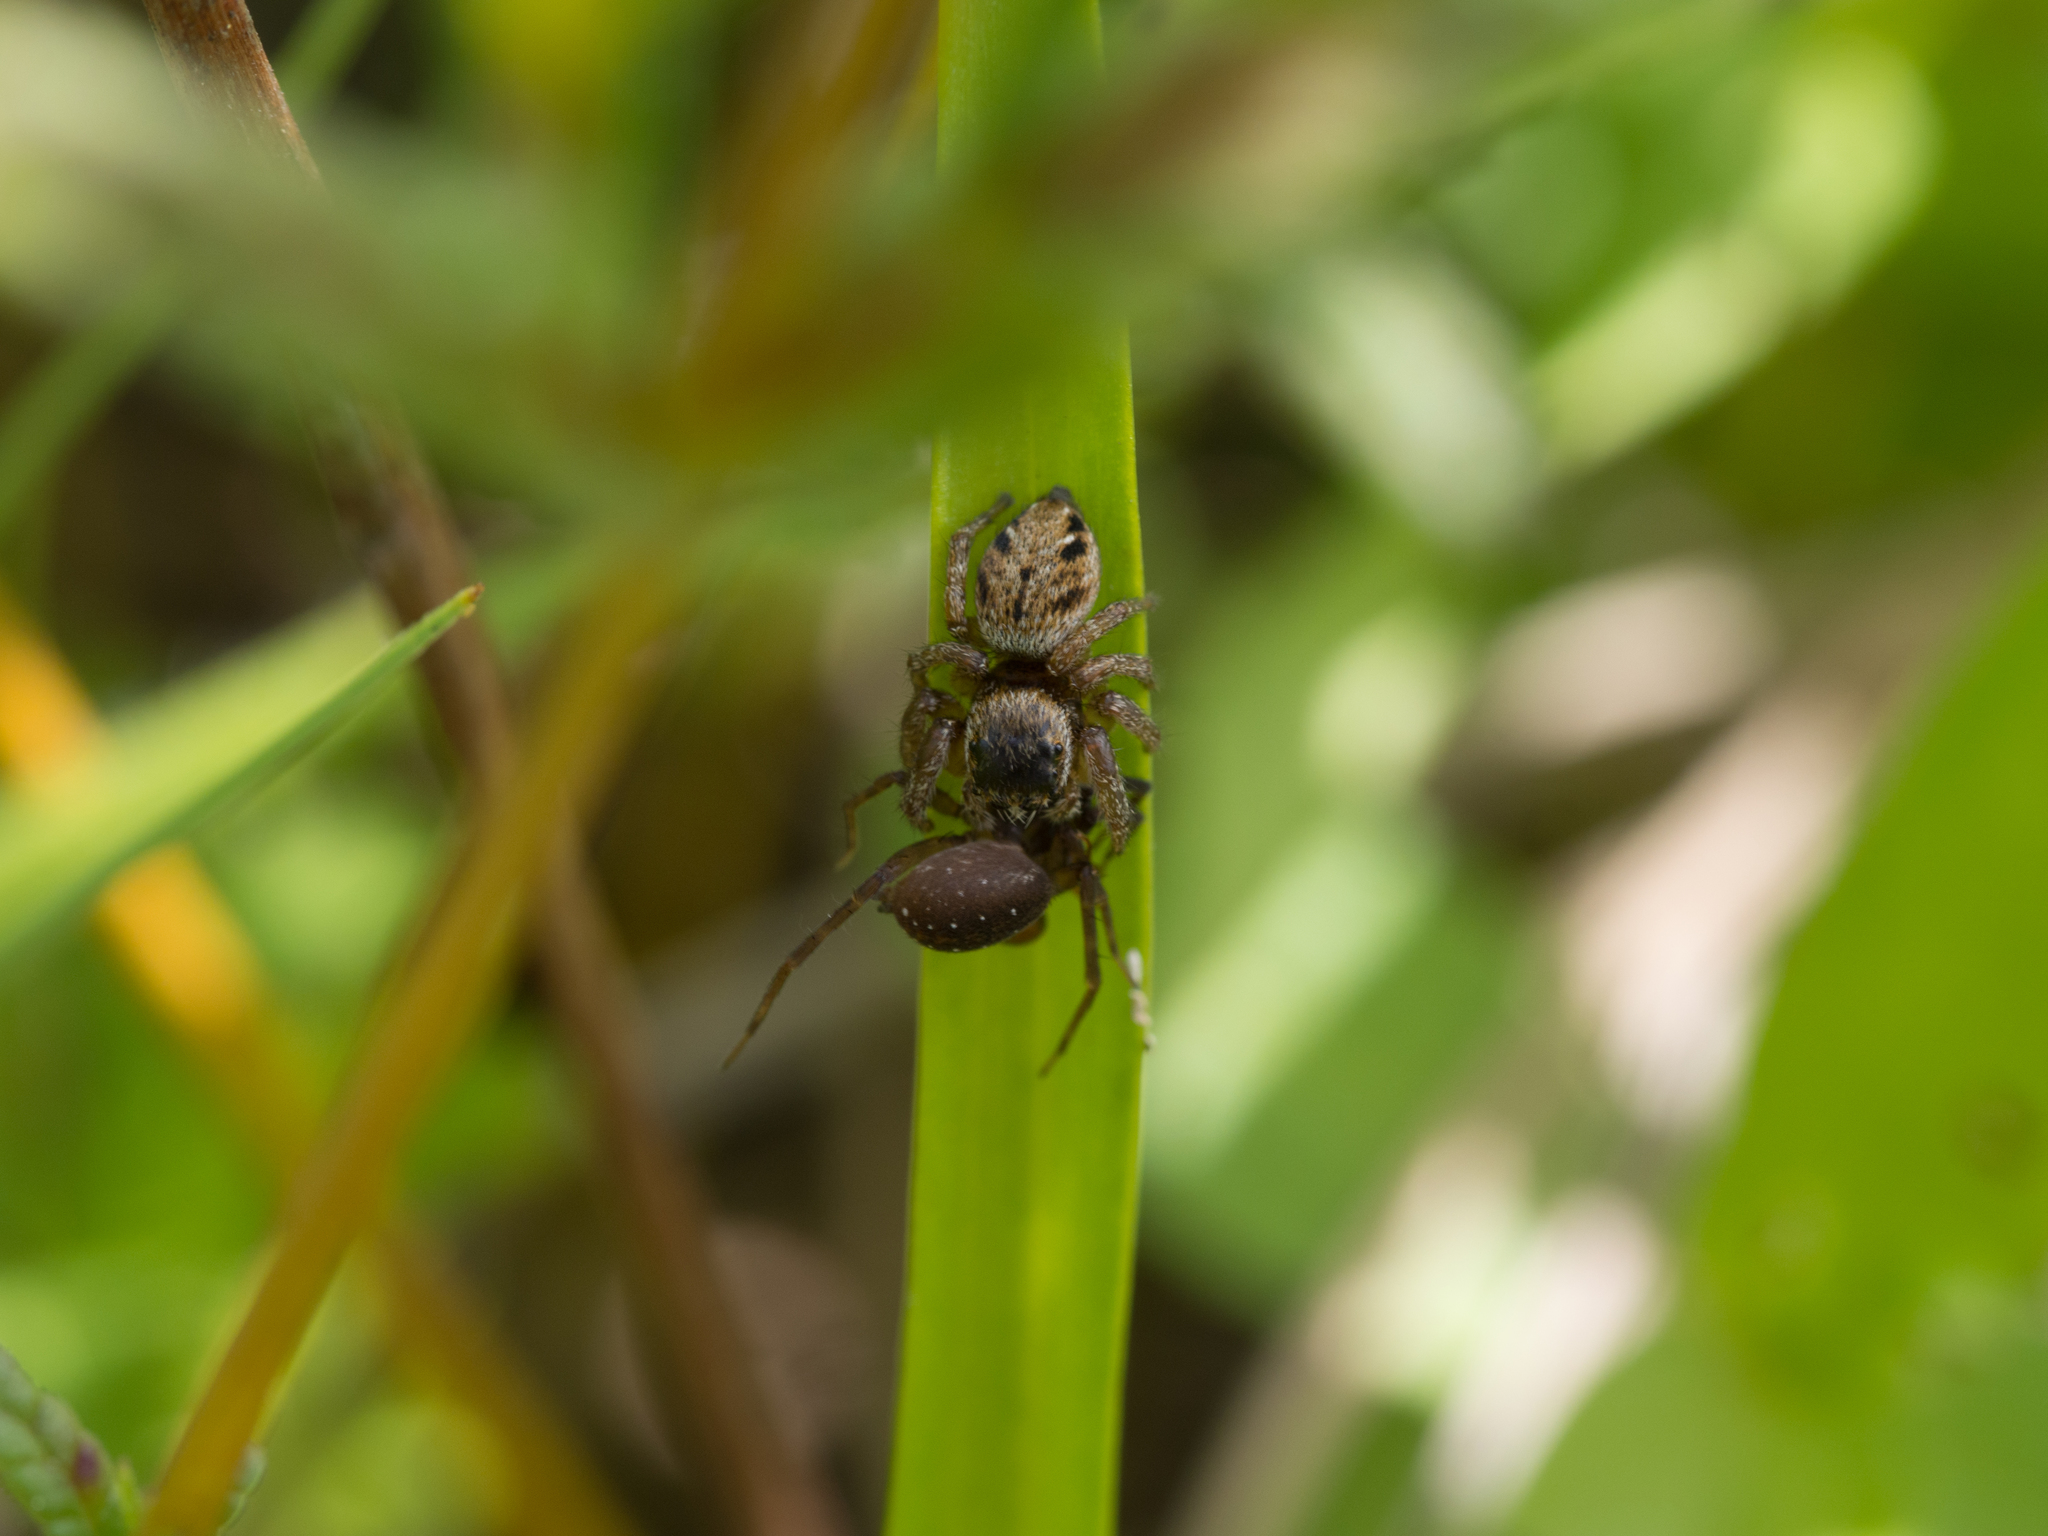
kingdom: Animalia
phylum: Arthropoda
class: Arachnida
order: Araneae
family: Lycosidae
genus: Piratula
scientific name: Piratula latitans
